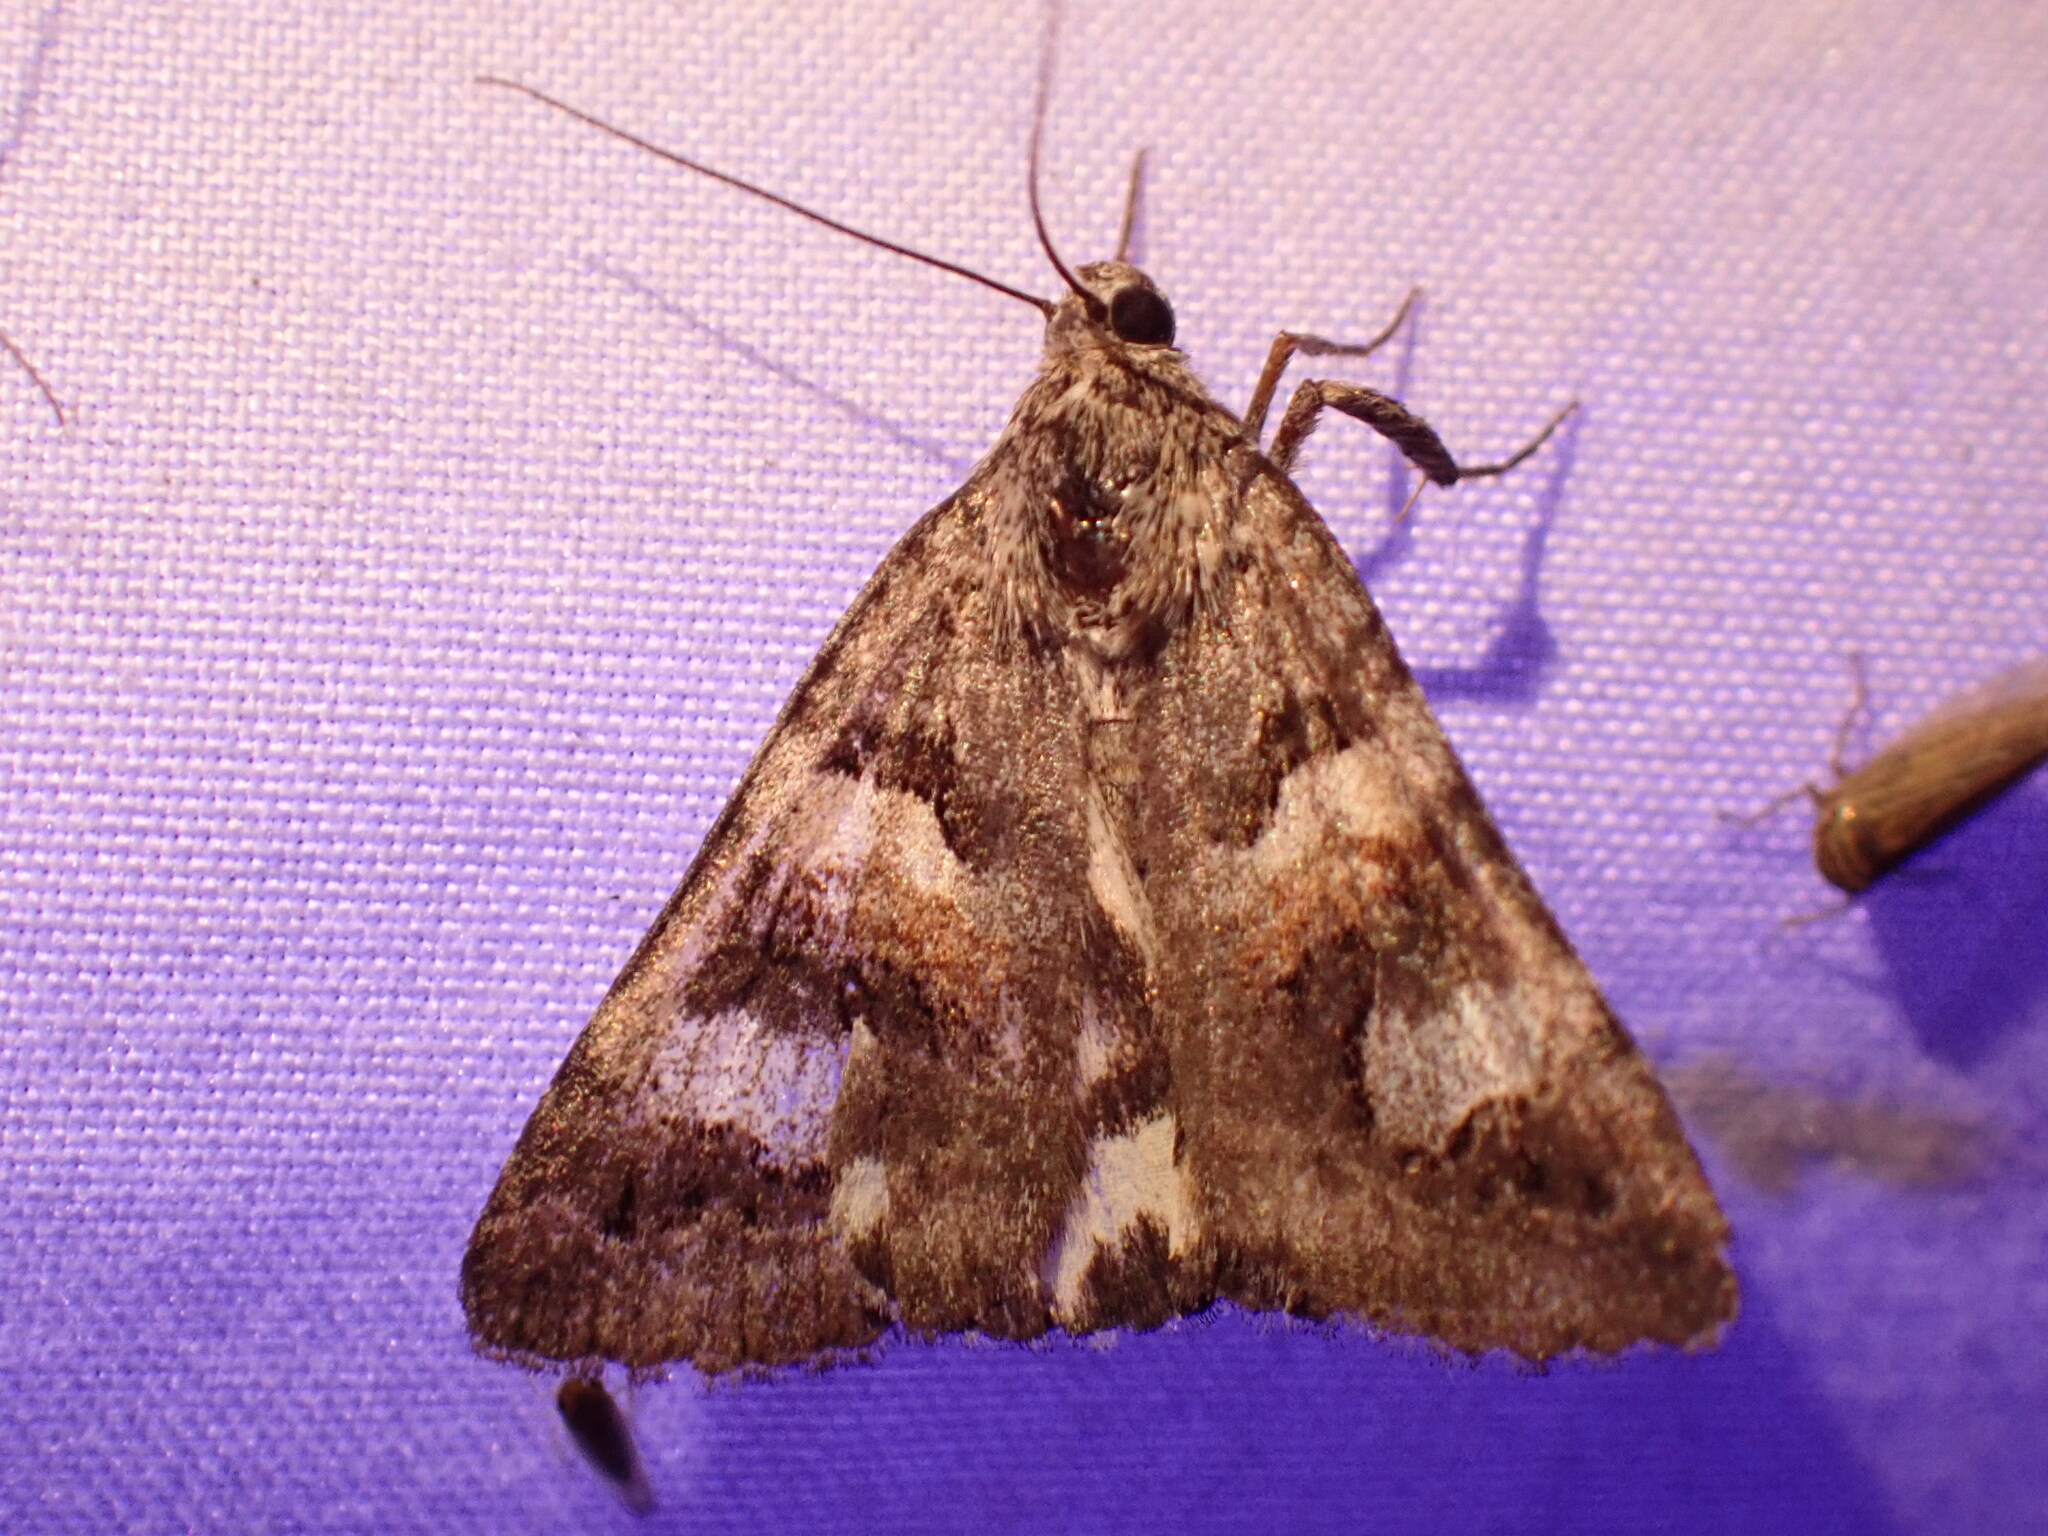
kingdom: Animalia
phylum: Arthropoda
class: Insecta
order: Lepidoptera
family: Erebidae
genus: Drasteria
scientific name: Drasteria hudsonica
